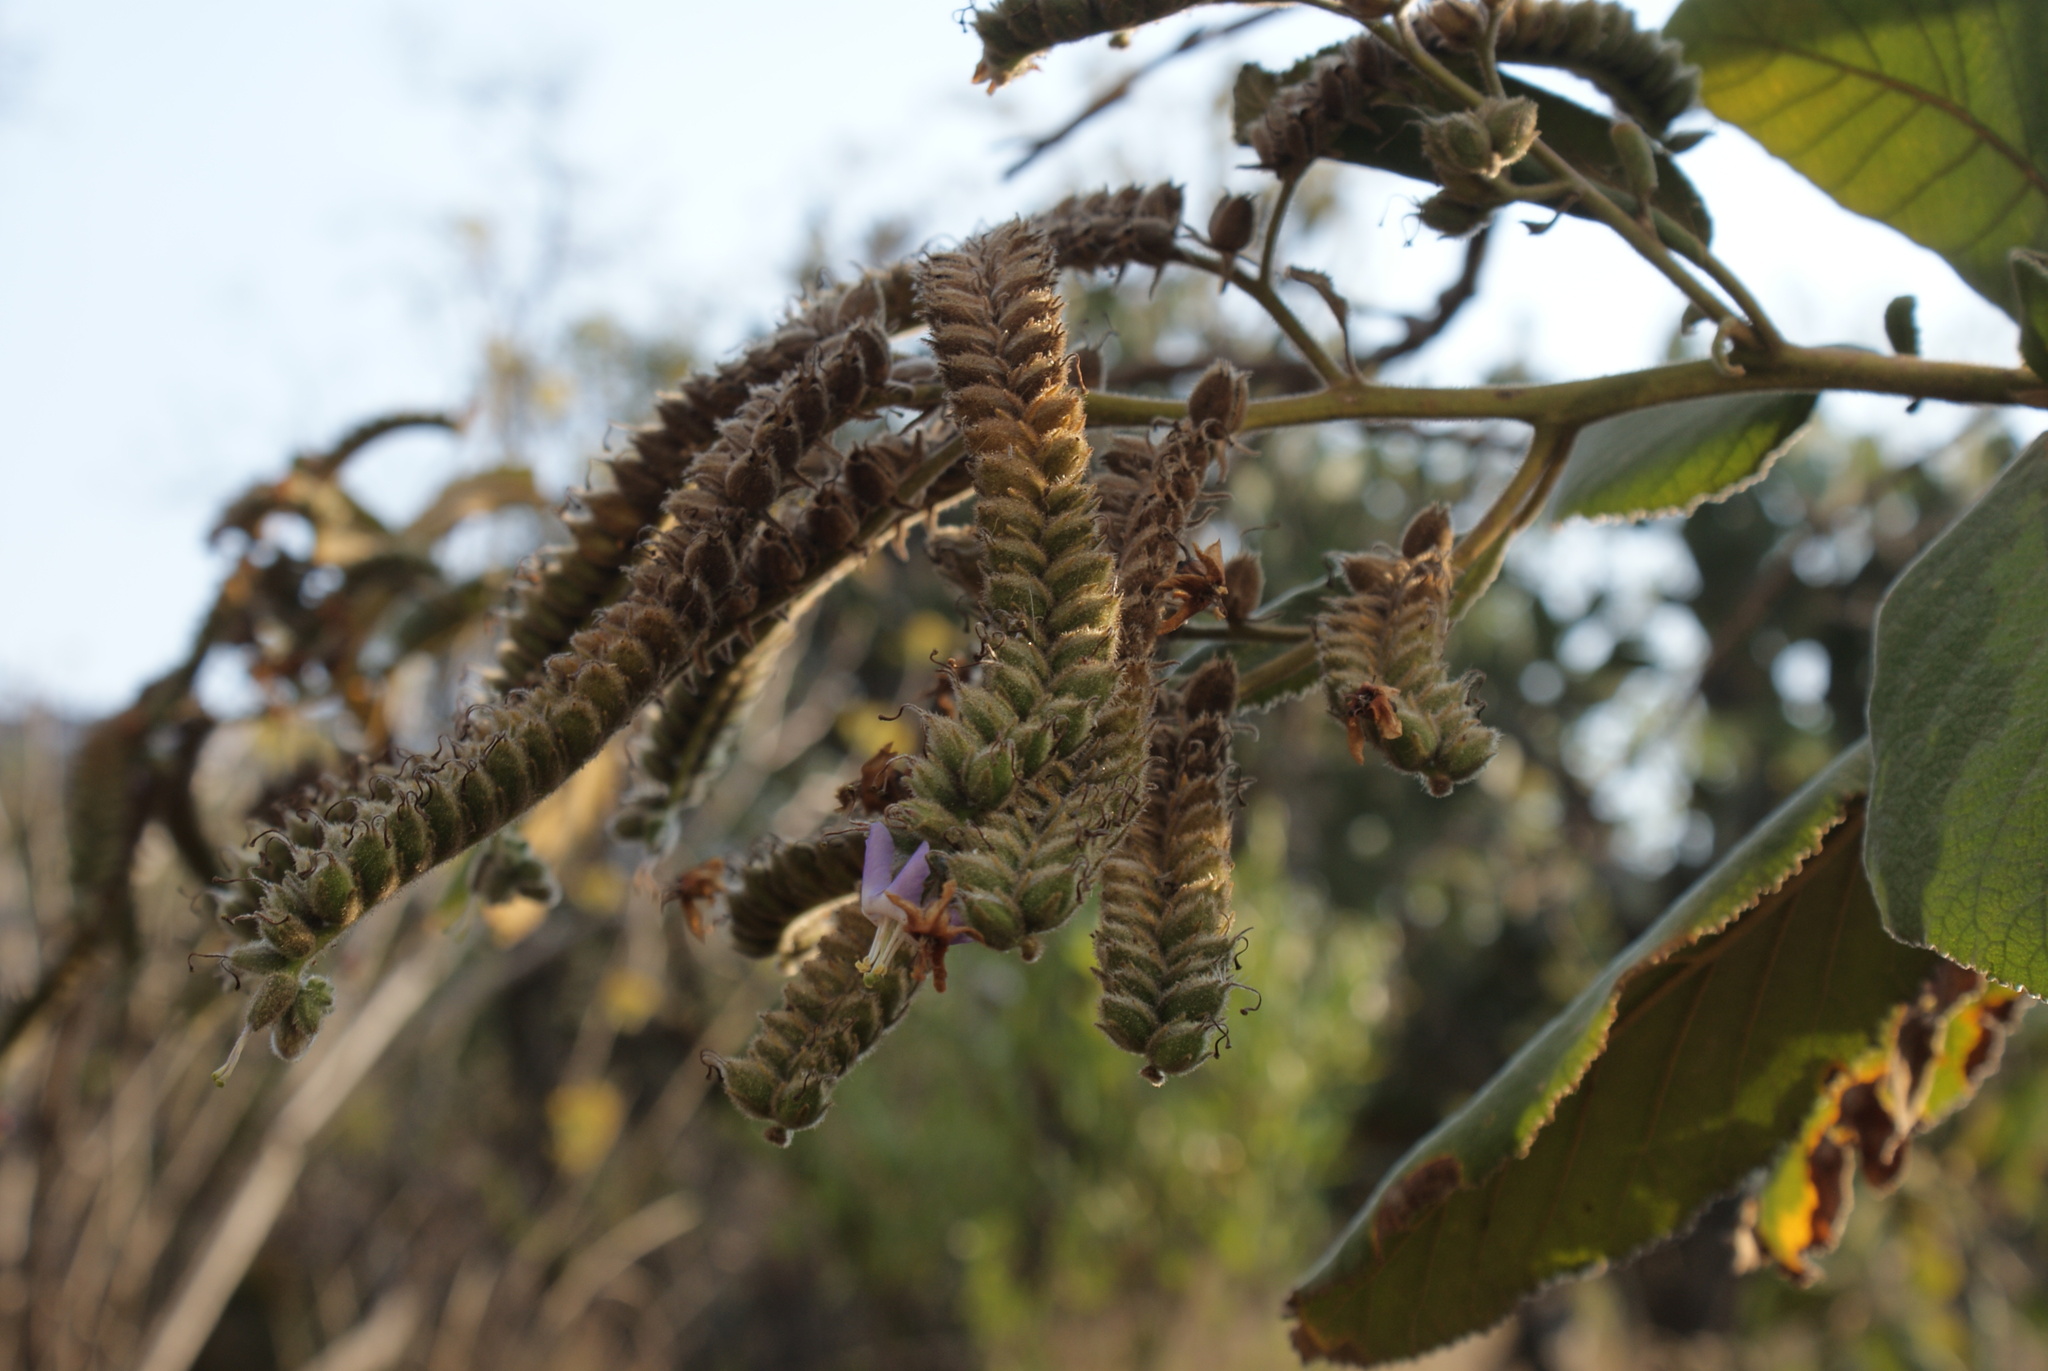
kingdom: Plantae
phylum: Tracheophyta
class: Magnoliopsida
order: Boraginales
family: Namaceae
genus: Wigandia
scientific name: Wigandia urens
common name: Caracus wigandia
